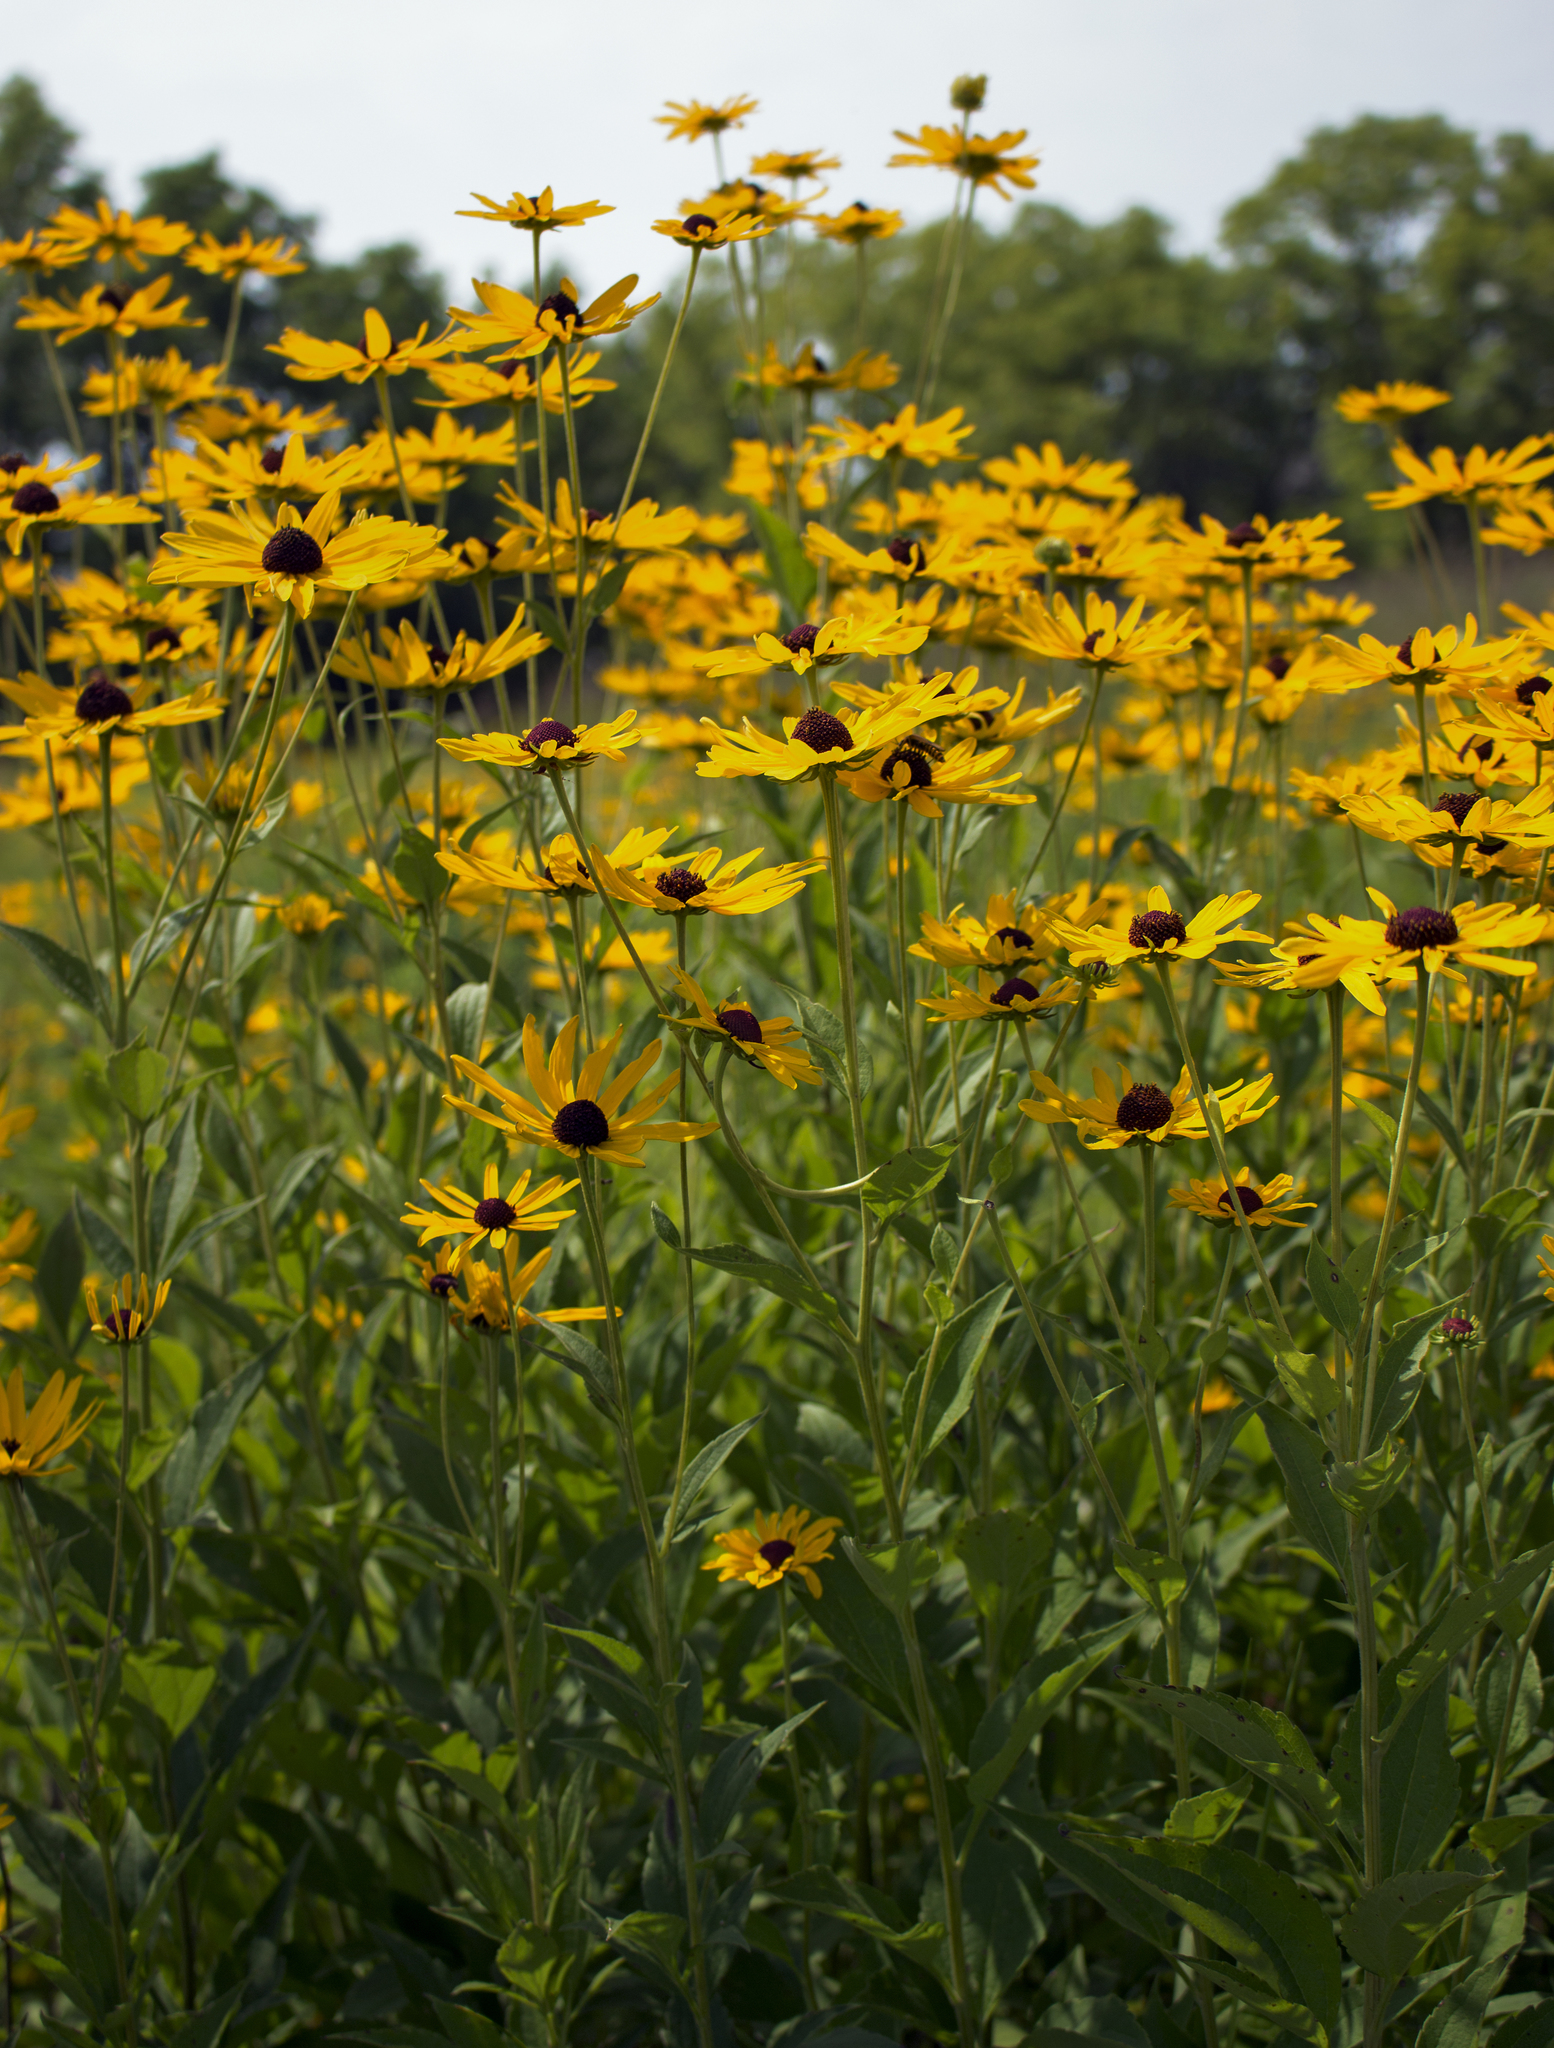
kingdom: Plantae
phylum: Tracheophyta
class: Magnoliopsida
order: Asterales
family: Asteraceae
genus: Rudbeckia
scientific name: Rudbeckia subtomentosa
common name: Sweet coneflower
